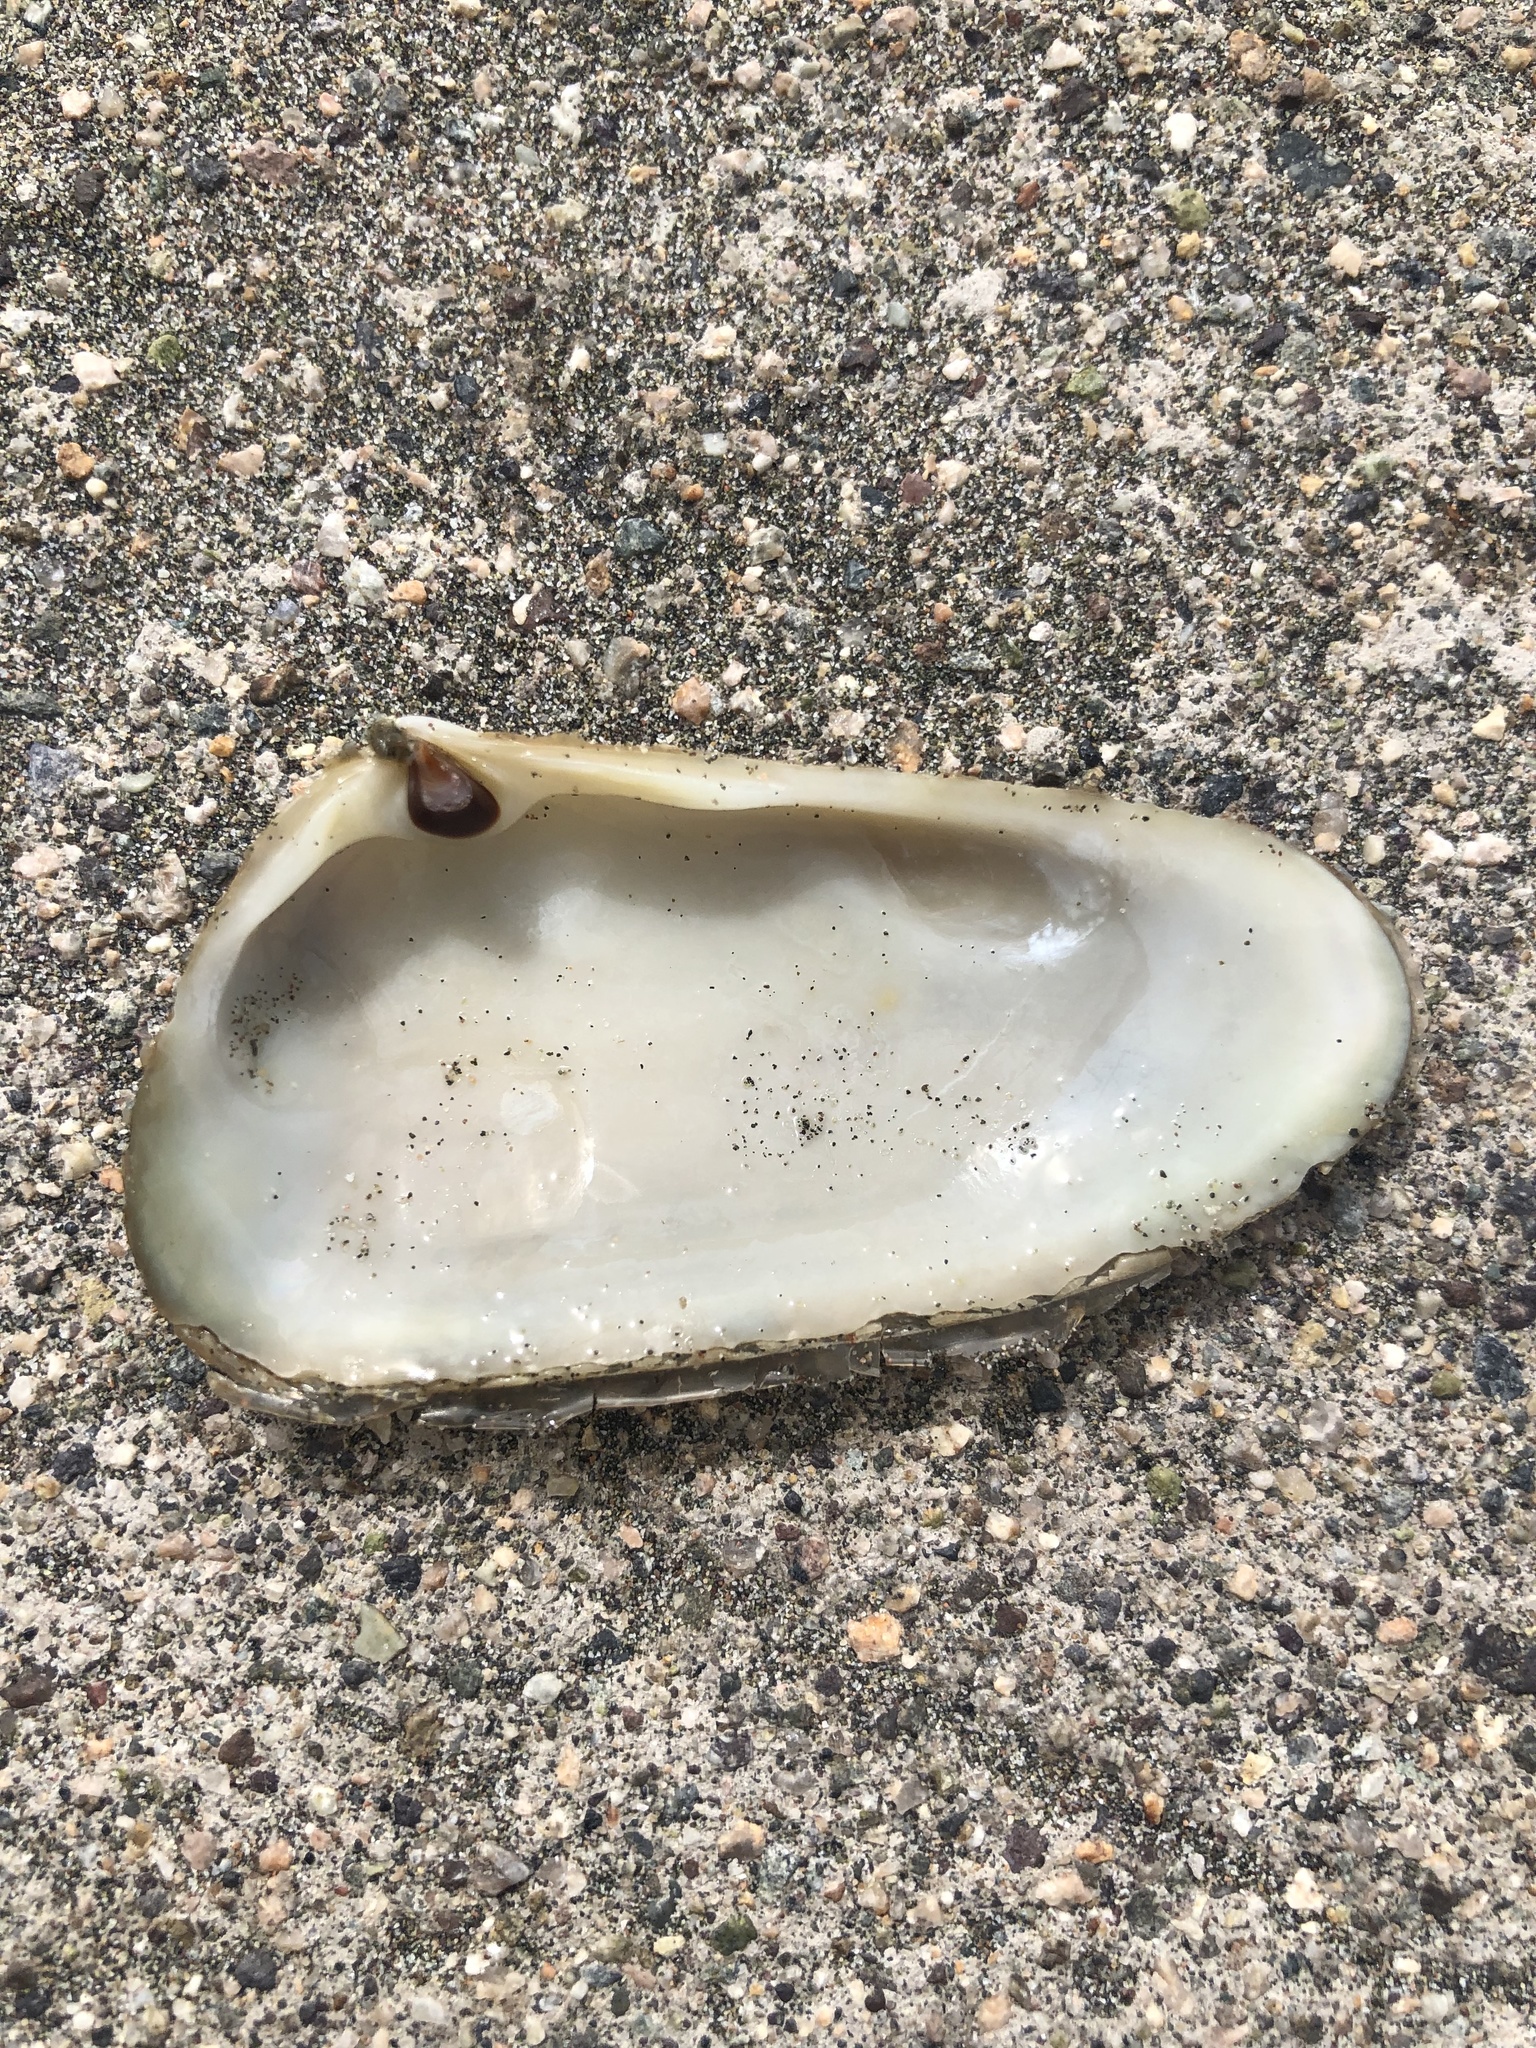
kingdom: Animalia
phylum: Mollusca
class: Bivalvia
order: Venerida
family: Mesodesmatidae
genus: Mesodesma
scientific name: Mesodesma donacium
